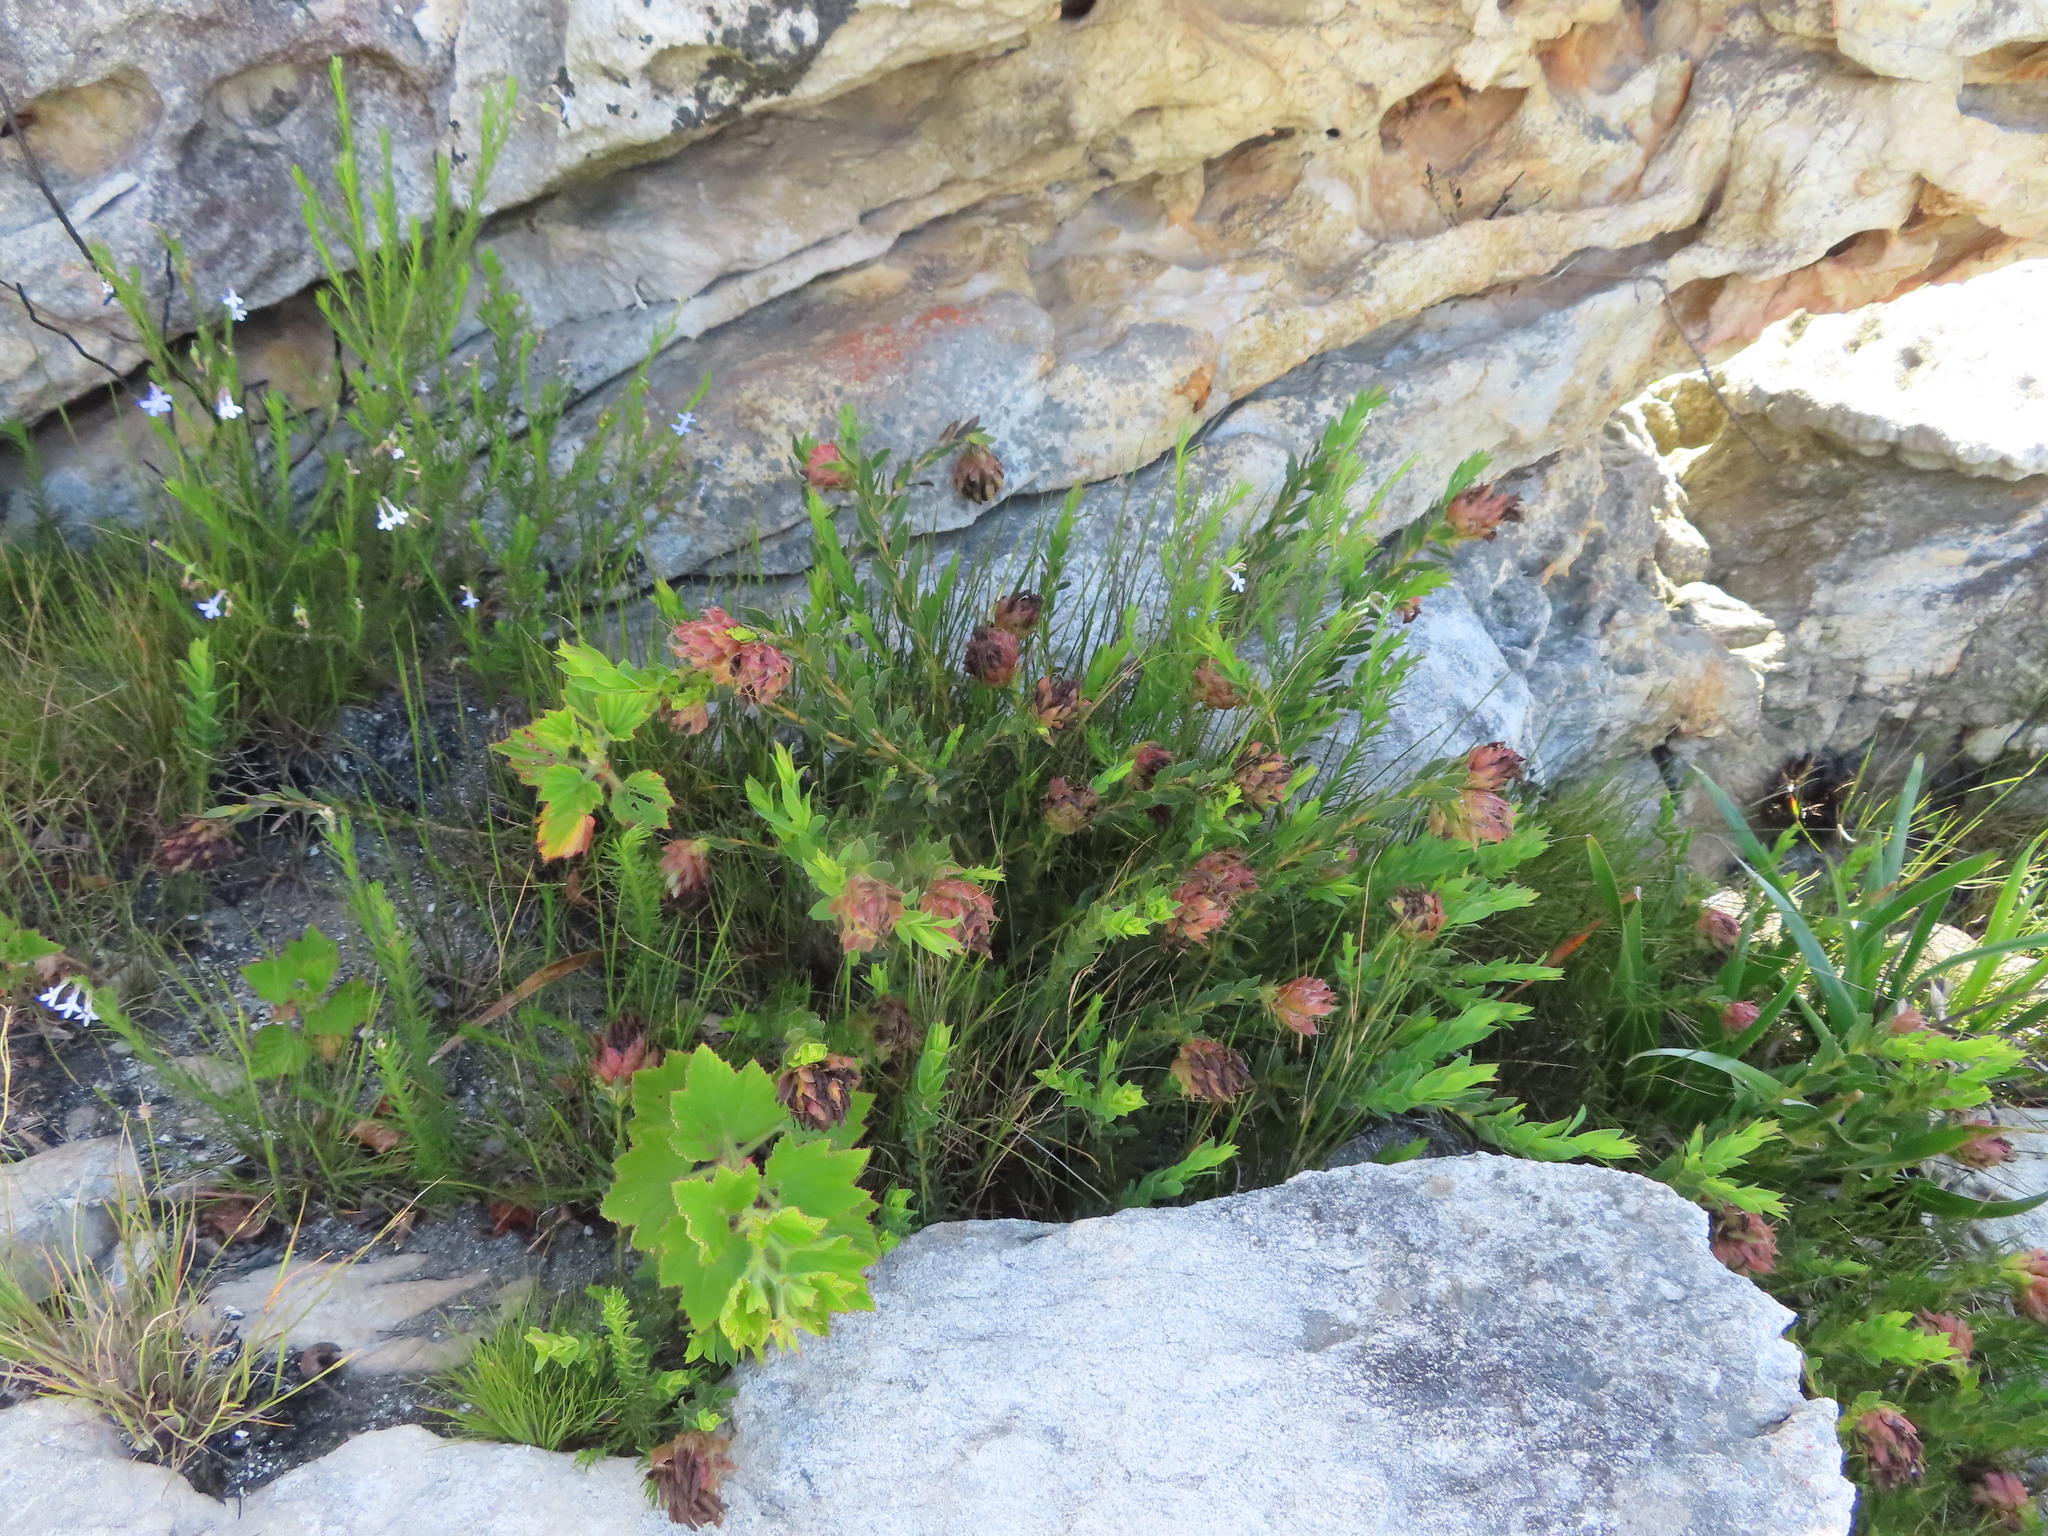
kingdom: Plantae
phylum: Tracheophyta
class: Magnoliopsida
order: Geraniales
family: Geraniaceae
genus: Pelargonium
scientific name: Pelargonium cucullatum
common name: Tree pelargonium
